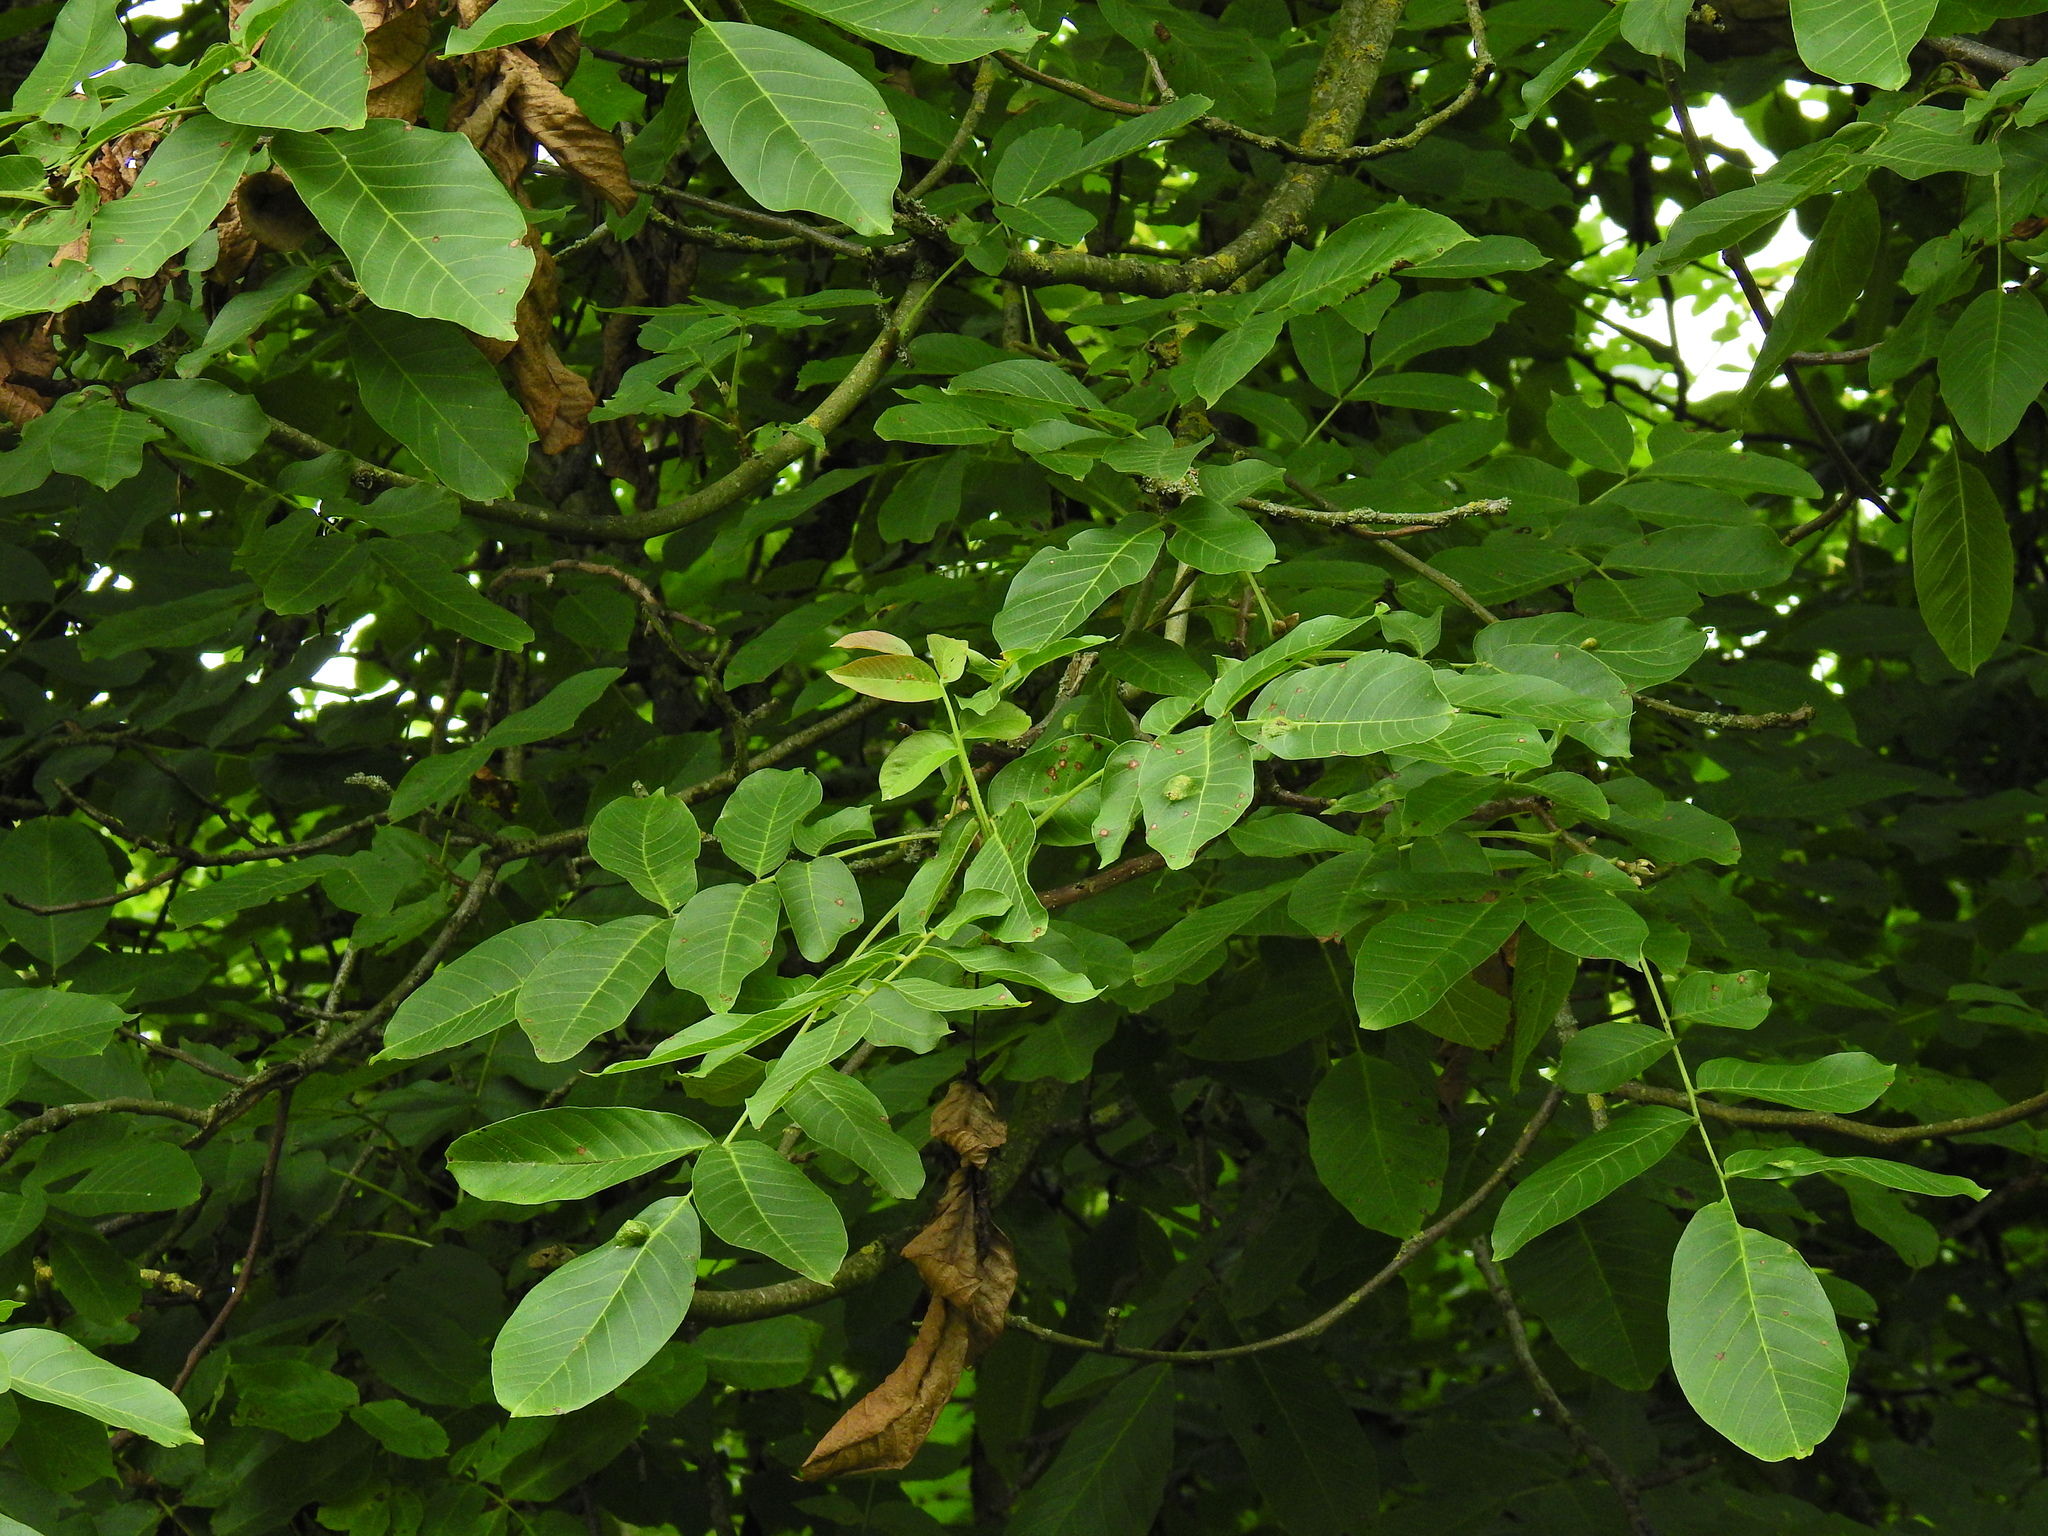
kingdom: Plantae
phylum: Tracheophyta
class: Magnoliopsida
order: Fagales
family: Juglandaceae
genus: Juglans
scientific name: Juglans regia
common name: Walnut
